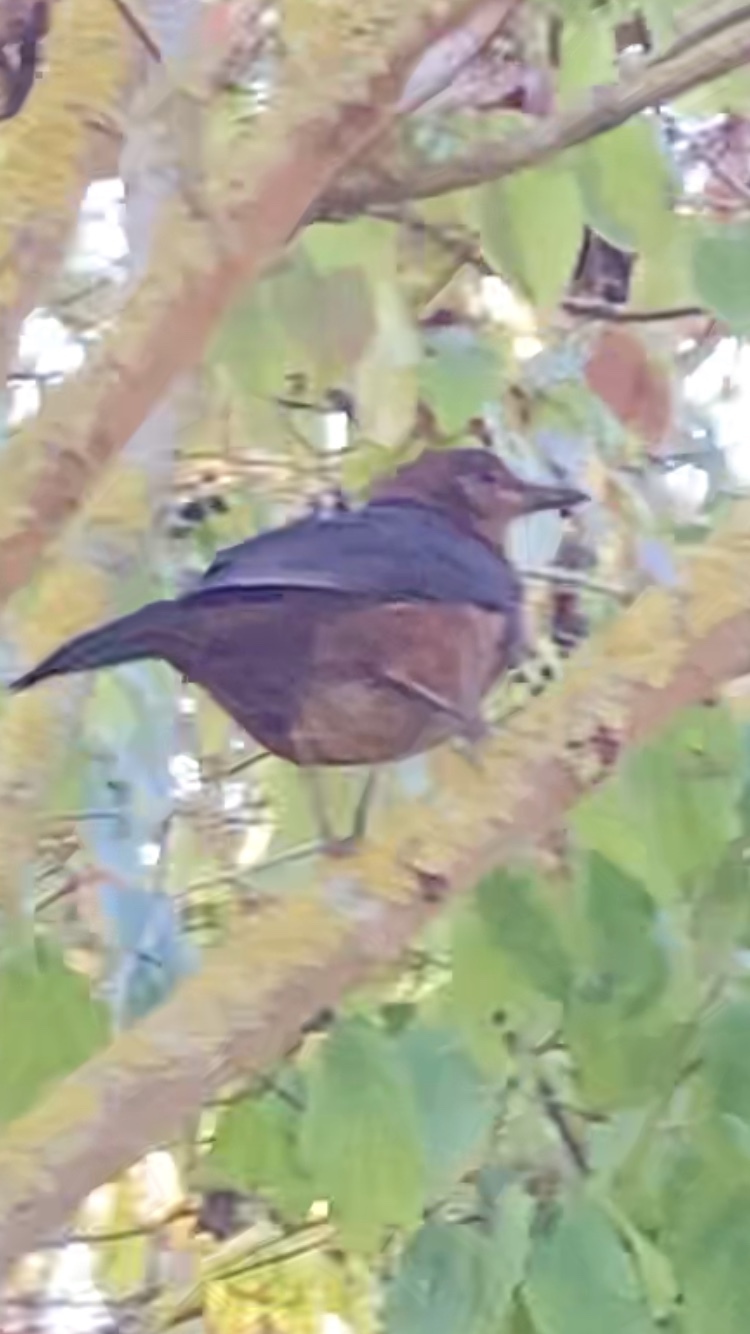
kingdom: Animalia
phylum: Chordata
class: Aves
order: Passeriformes
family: Turdidae
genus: Turdus
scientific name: Turdus merula
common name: Common blackbird
